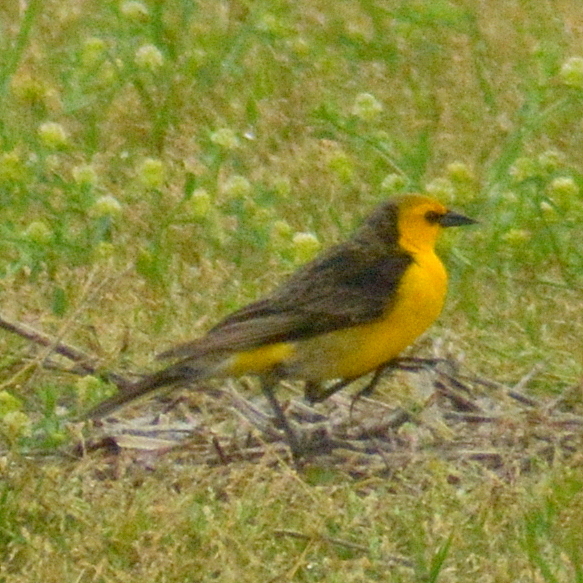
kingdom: Animalia
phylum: Chordata
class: Aves
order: Passeriformes
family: Icteridae
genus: Xanthopsar
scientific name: Xanthopsar flavus
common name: Saffron-cowled blackbird
